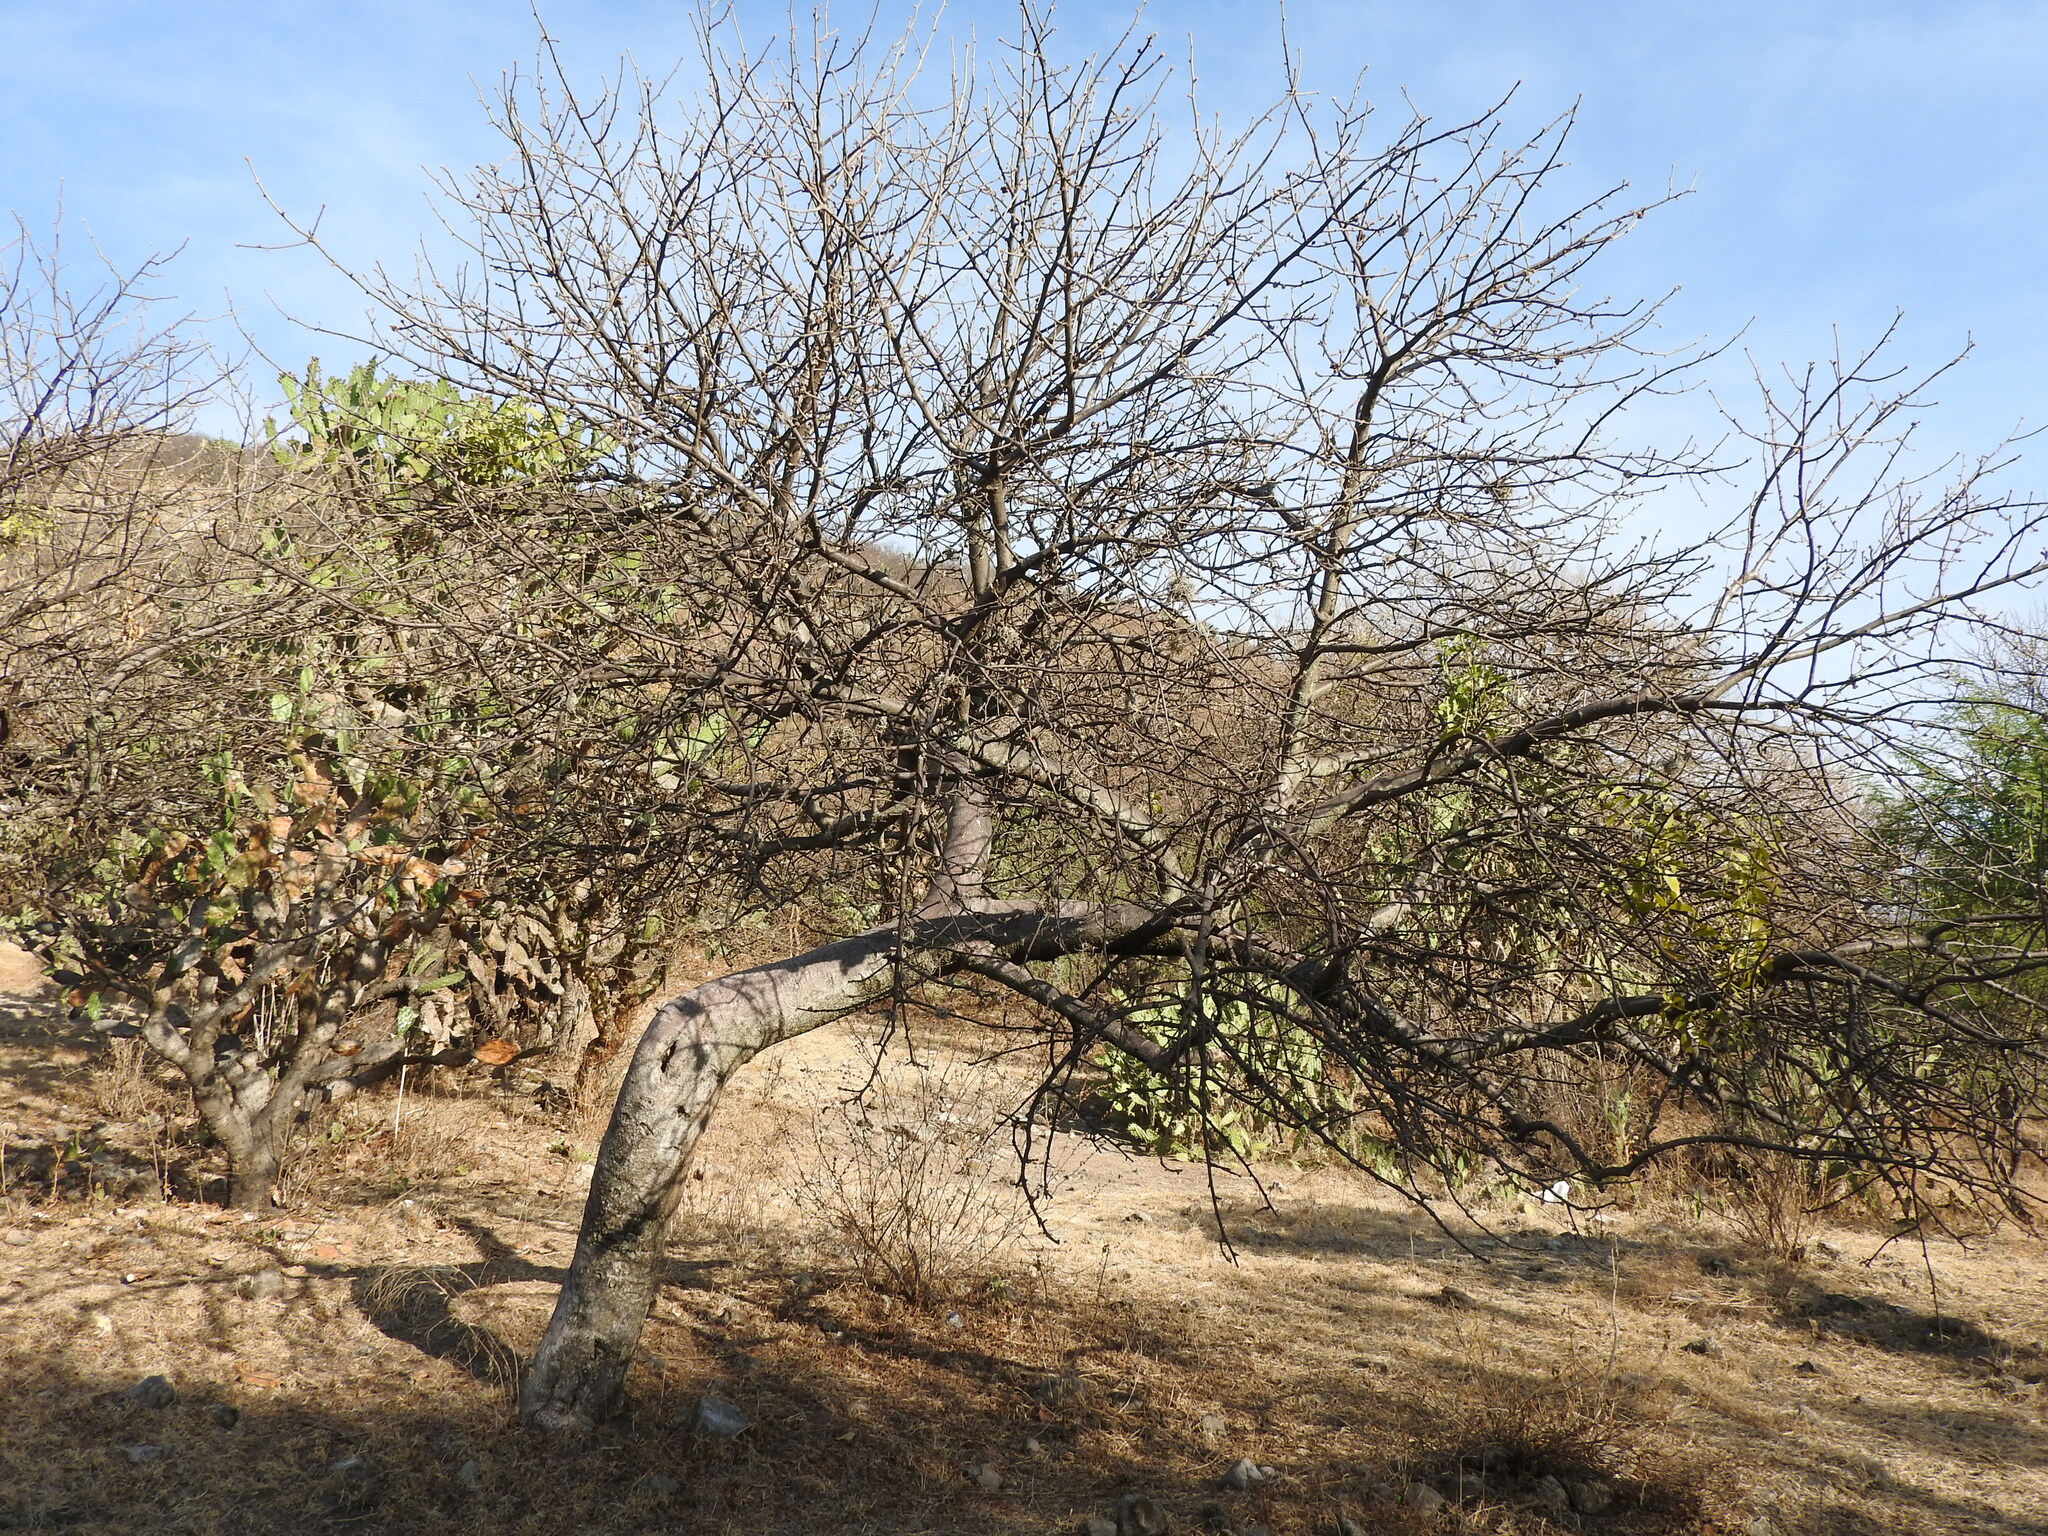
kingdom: Plantae
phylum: Tracheophyta
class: Magnoliopsida
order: Sapindales
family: Burseraceae
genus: Bursera
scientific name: Bursera cuneata
